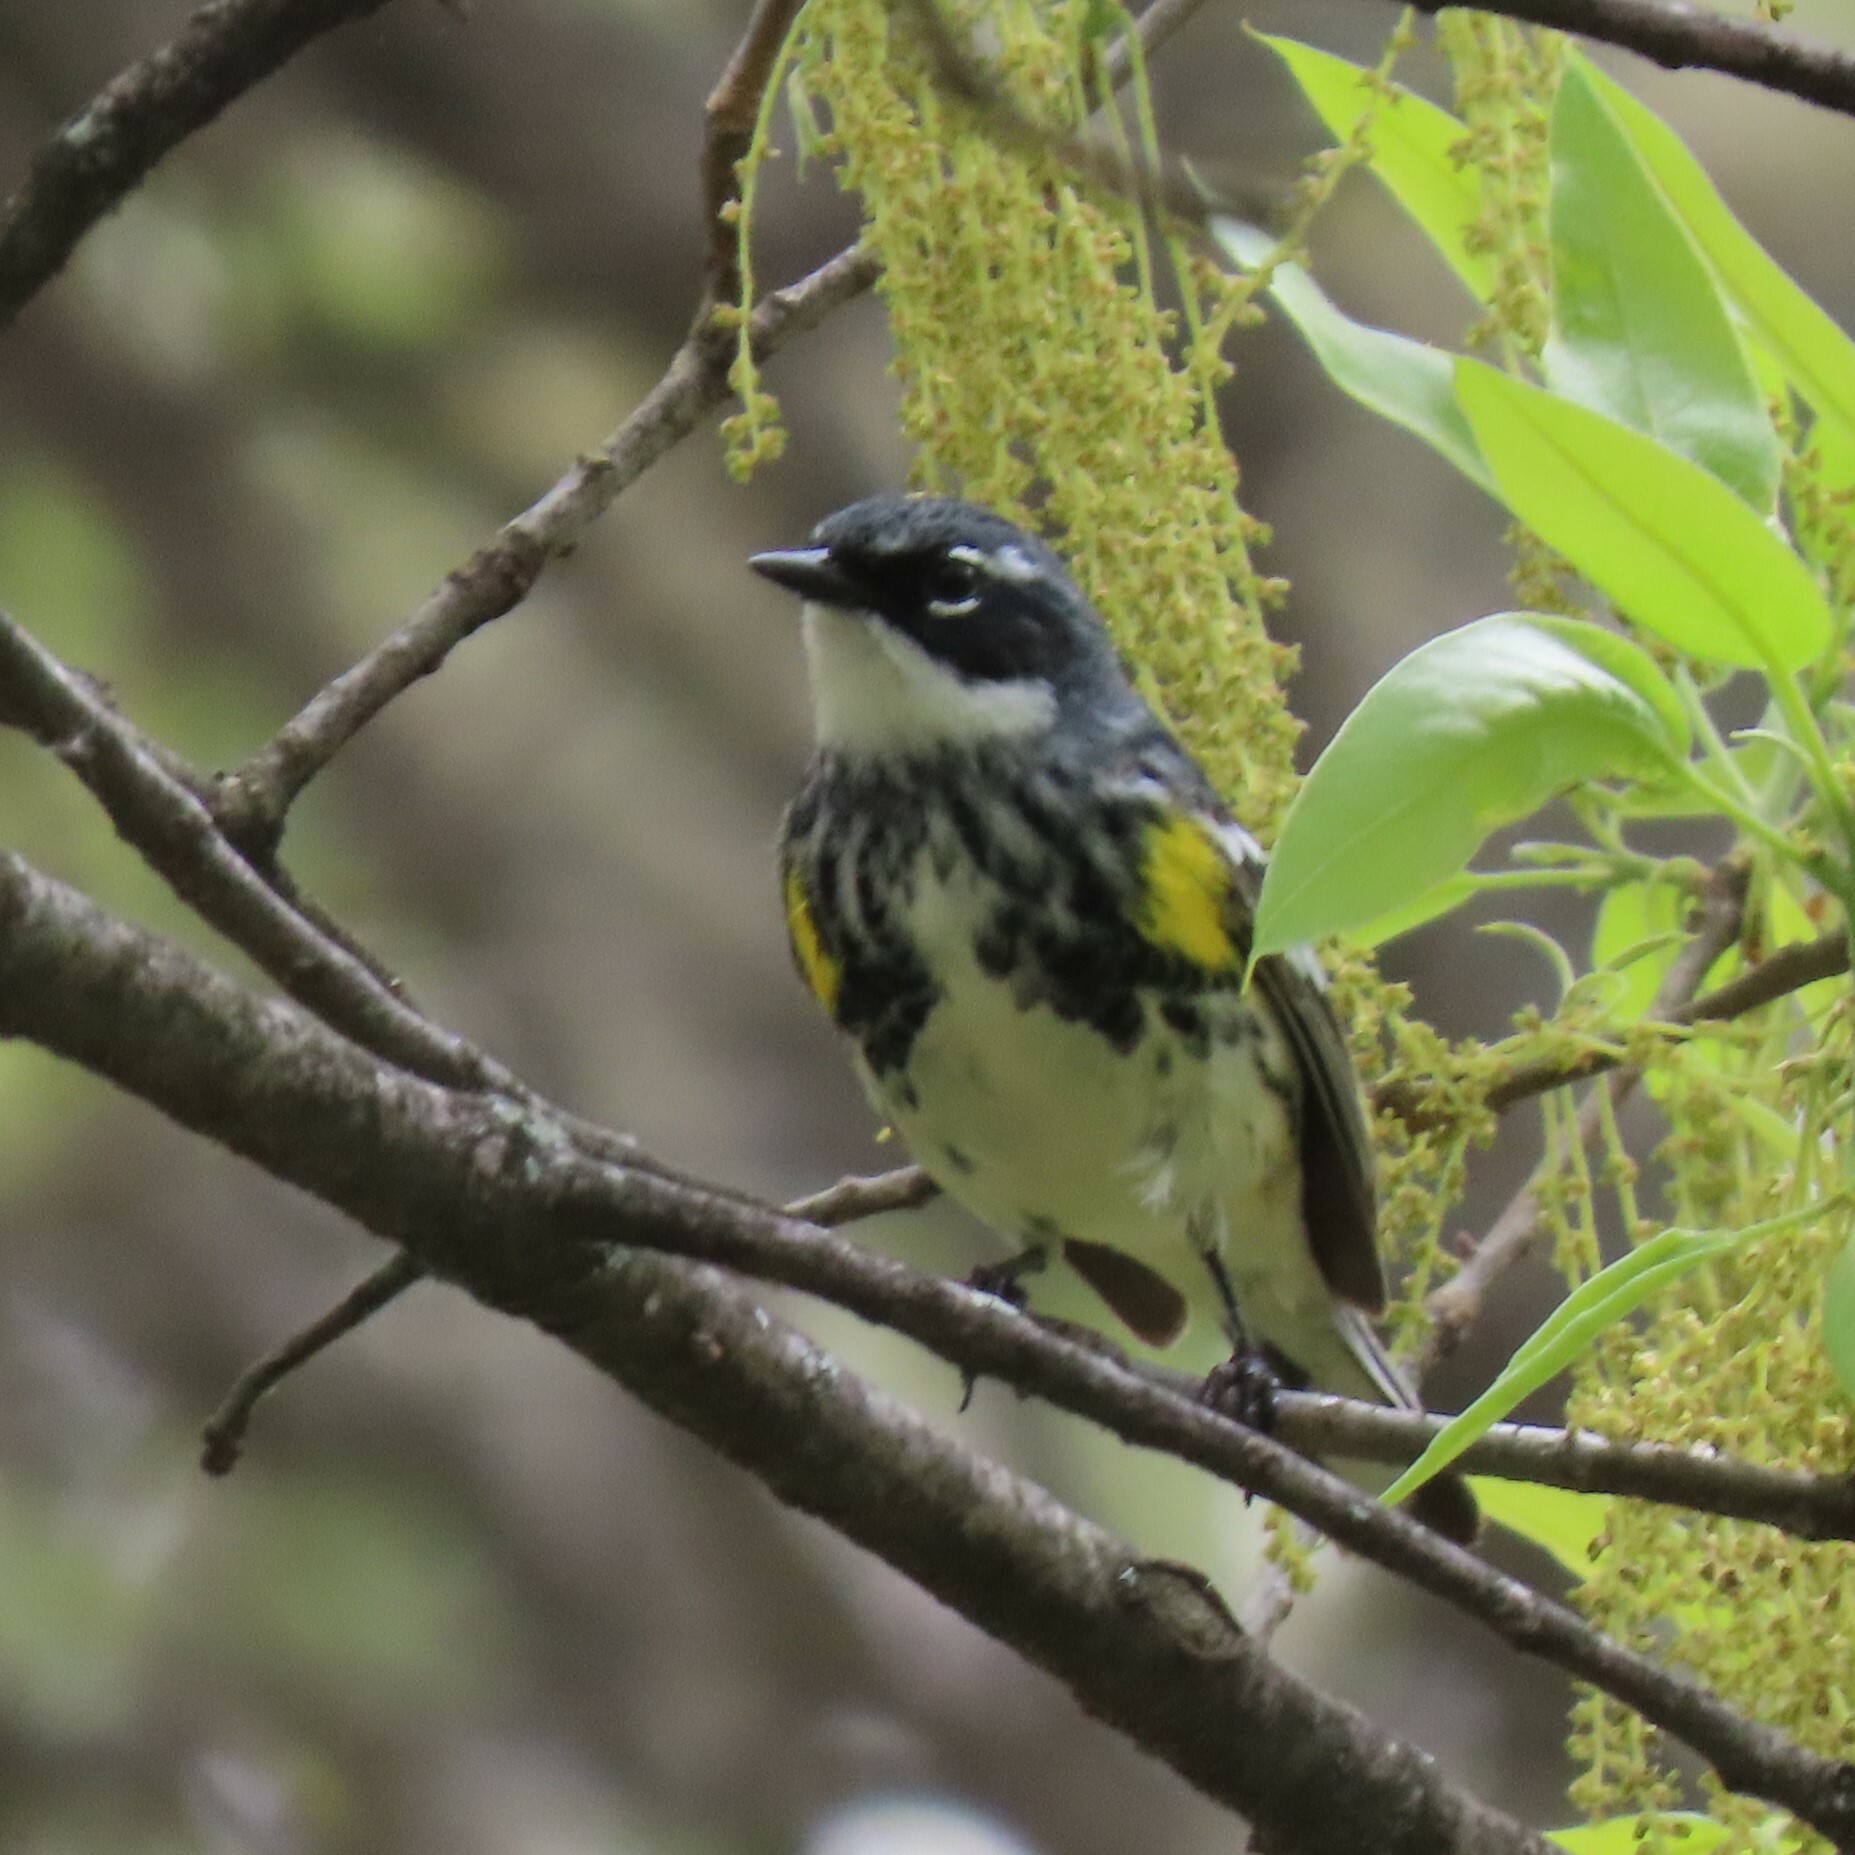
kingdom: Animalia
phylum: Chordata
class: Aves
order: Passeriformes
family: Parulidae
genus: Setophaga
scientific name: Setophaga coronata
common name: Myrtle warbler
